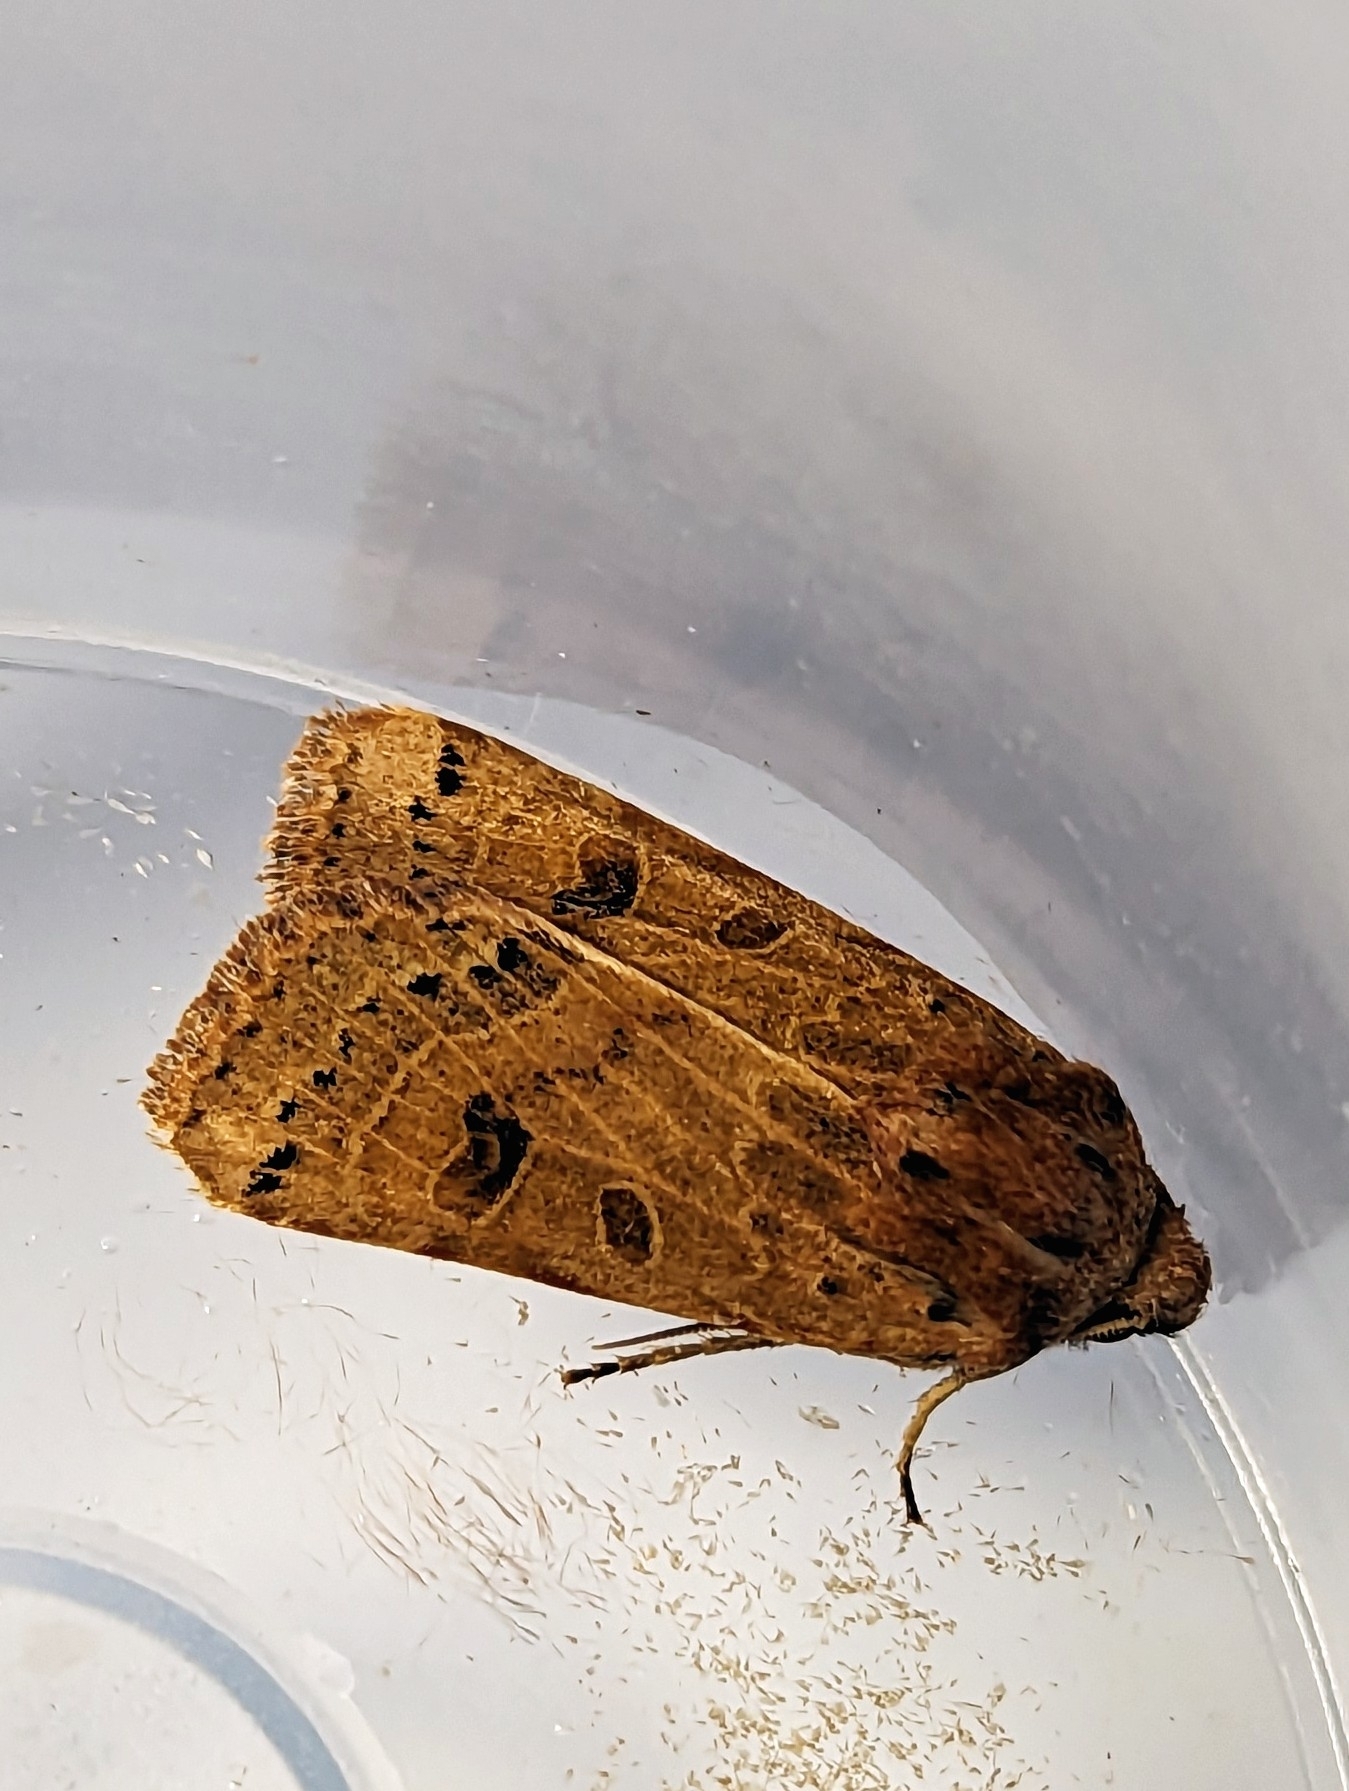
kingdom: Animalia
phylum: Arthropoda
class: Insecta
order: Lepidoptera
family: Noctuidae
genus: Agrochola
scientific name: Agrochola lunosa
